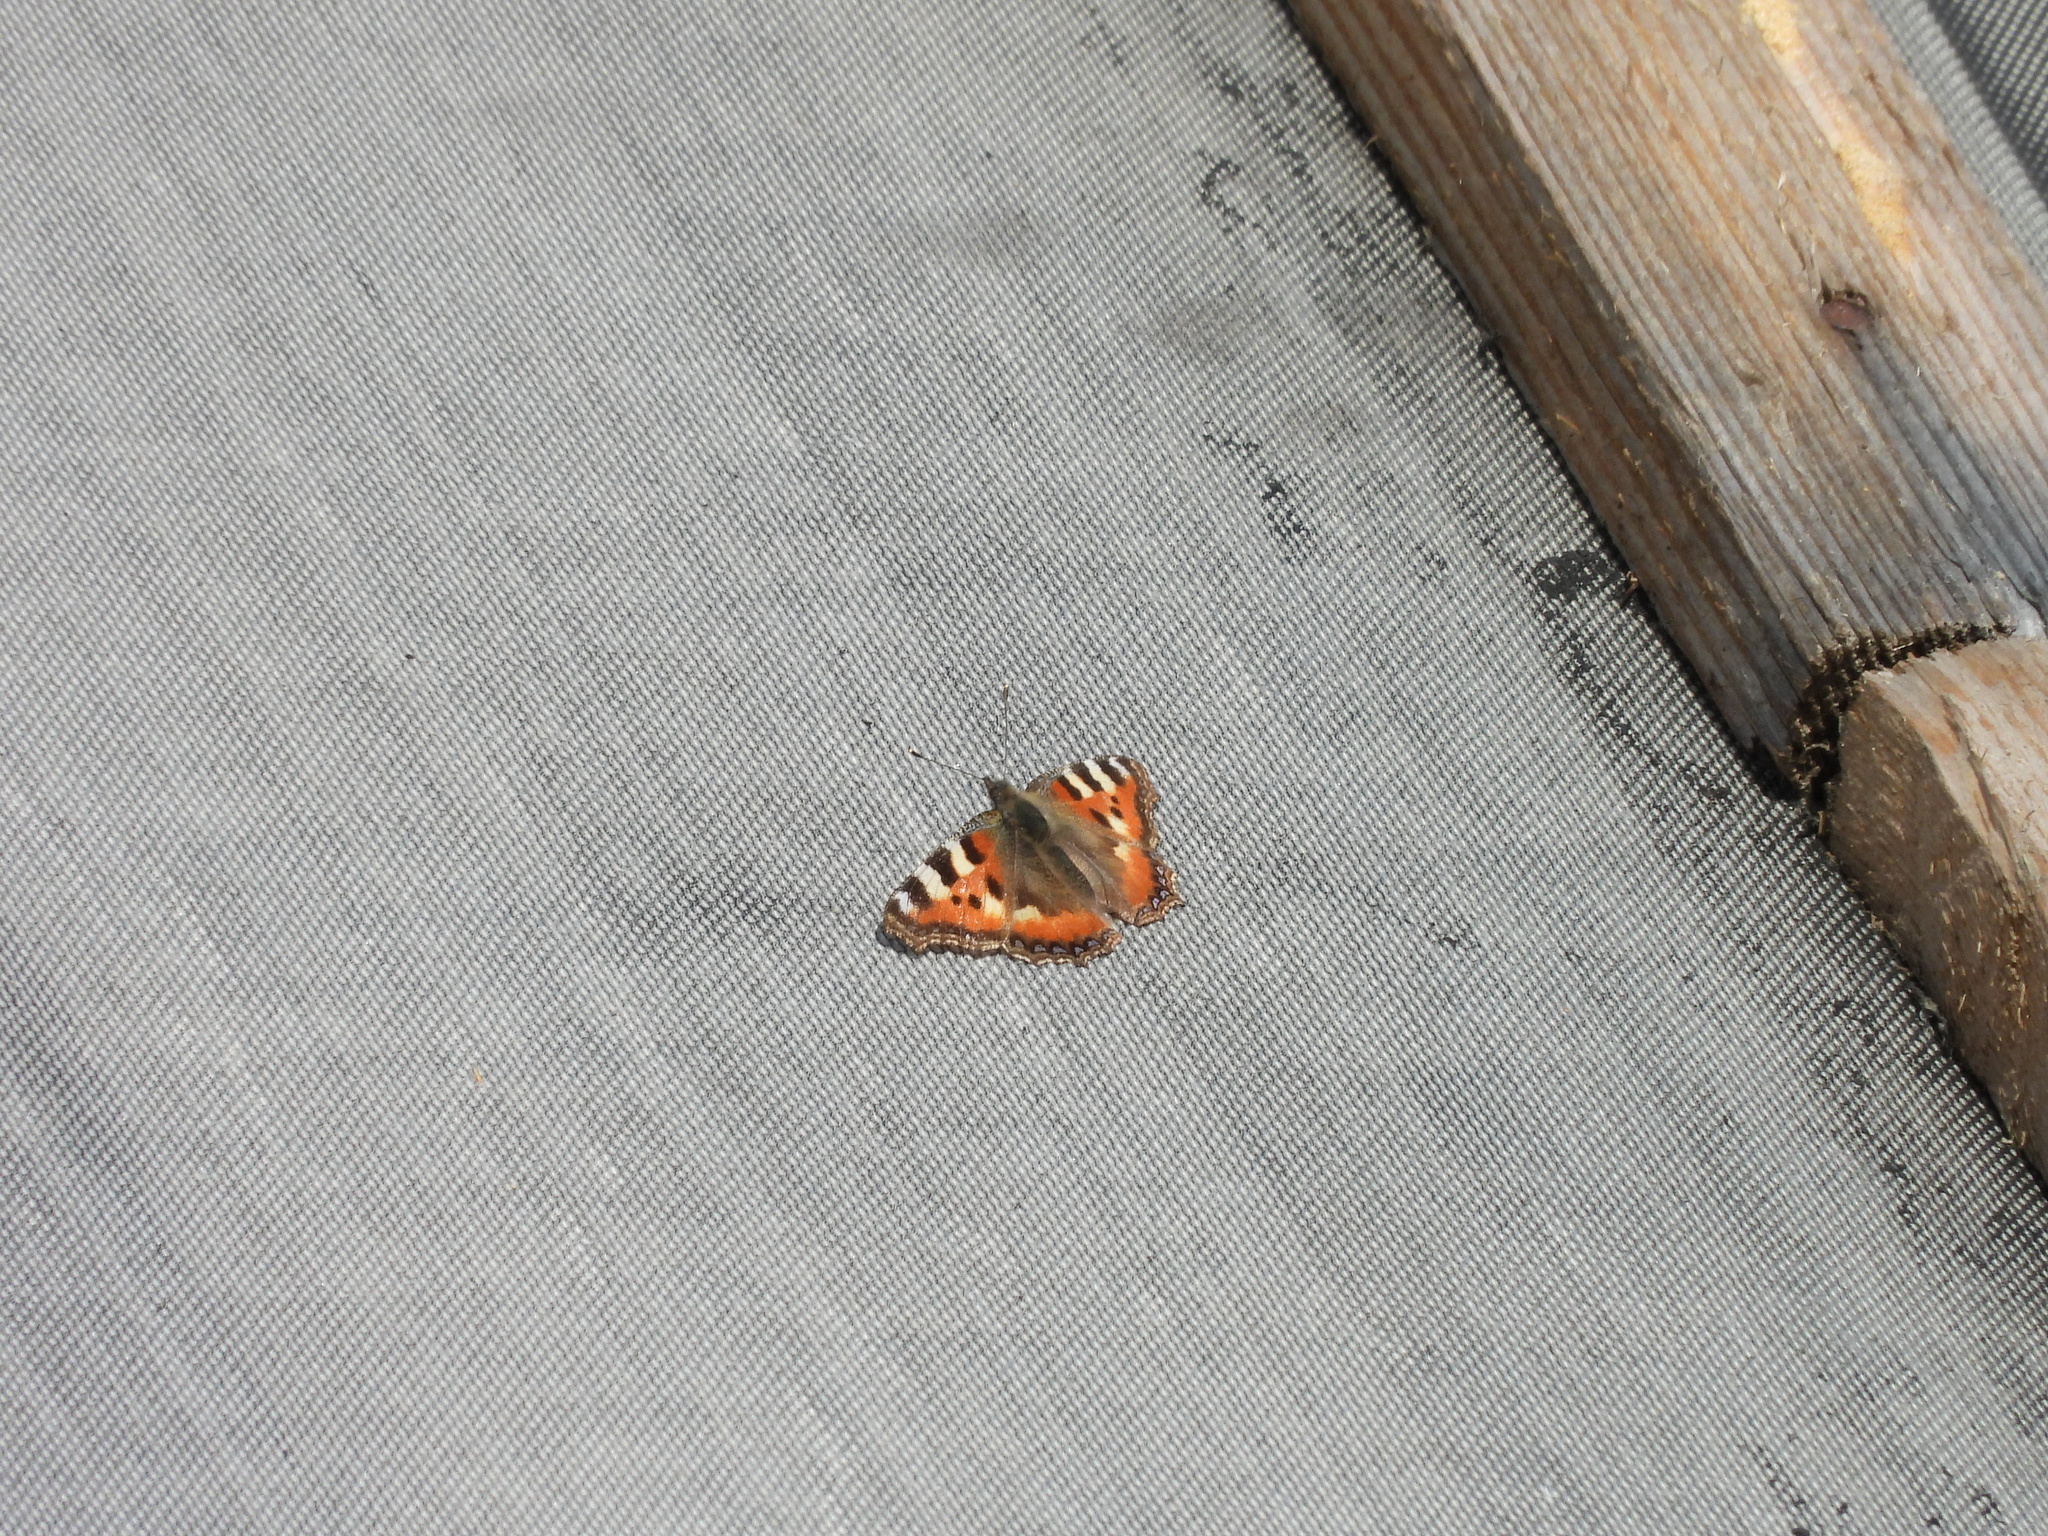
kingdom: Animalia
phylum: Arthropoda
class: Insecta
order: Lepidoptera
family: Nymphalidae
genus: Aglais
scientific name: Aglais urticae
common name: Small tortoiseshell
